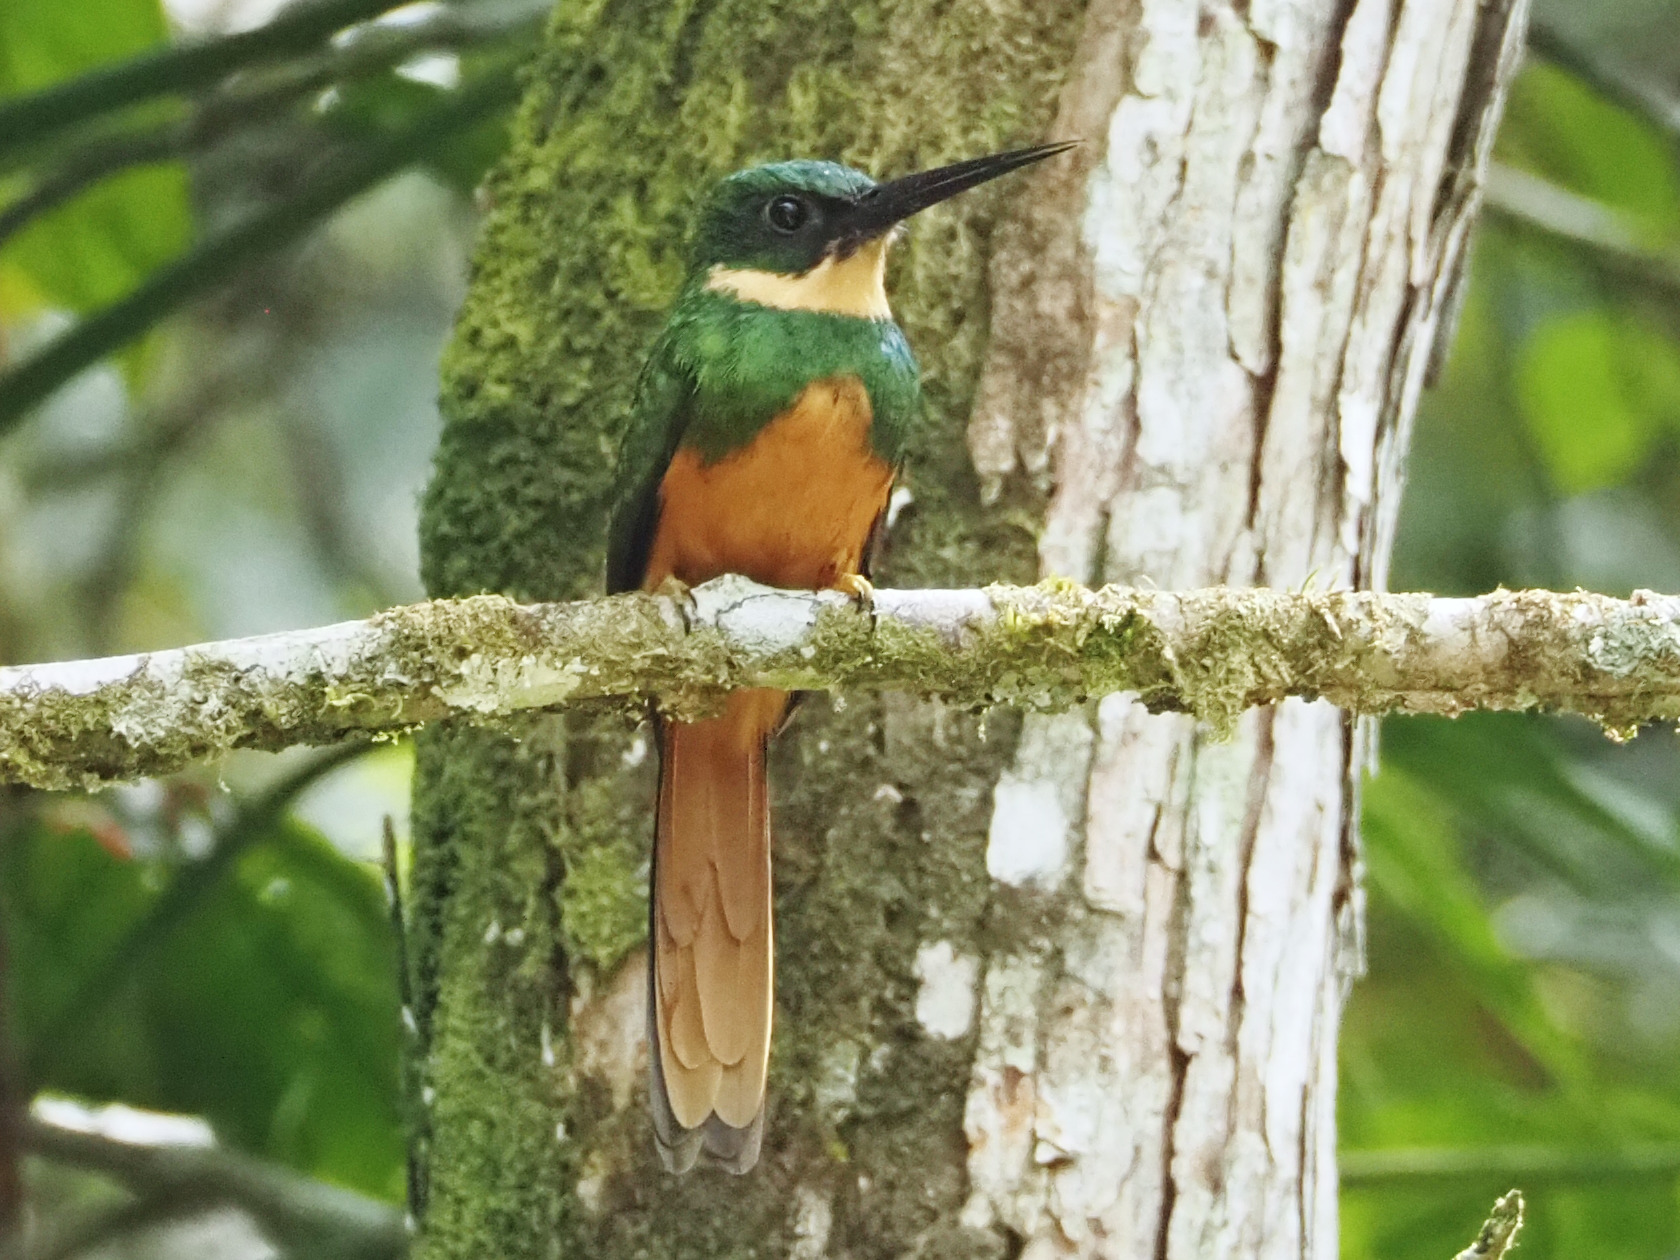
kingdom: Animalia
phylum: Chordata
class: Aves
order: Piciformes
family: Galbulidae
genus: Galbula
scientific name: Galbula ruficauda
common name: Rufous-tailed jacamar
